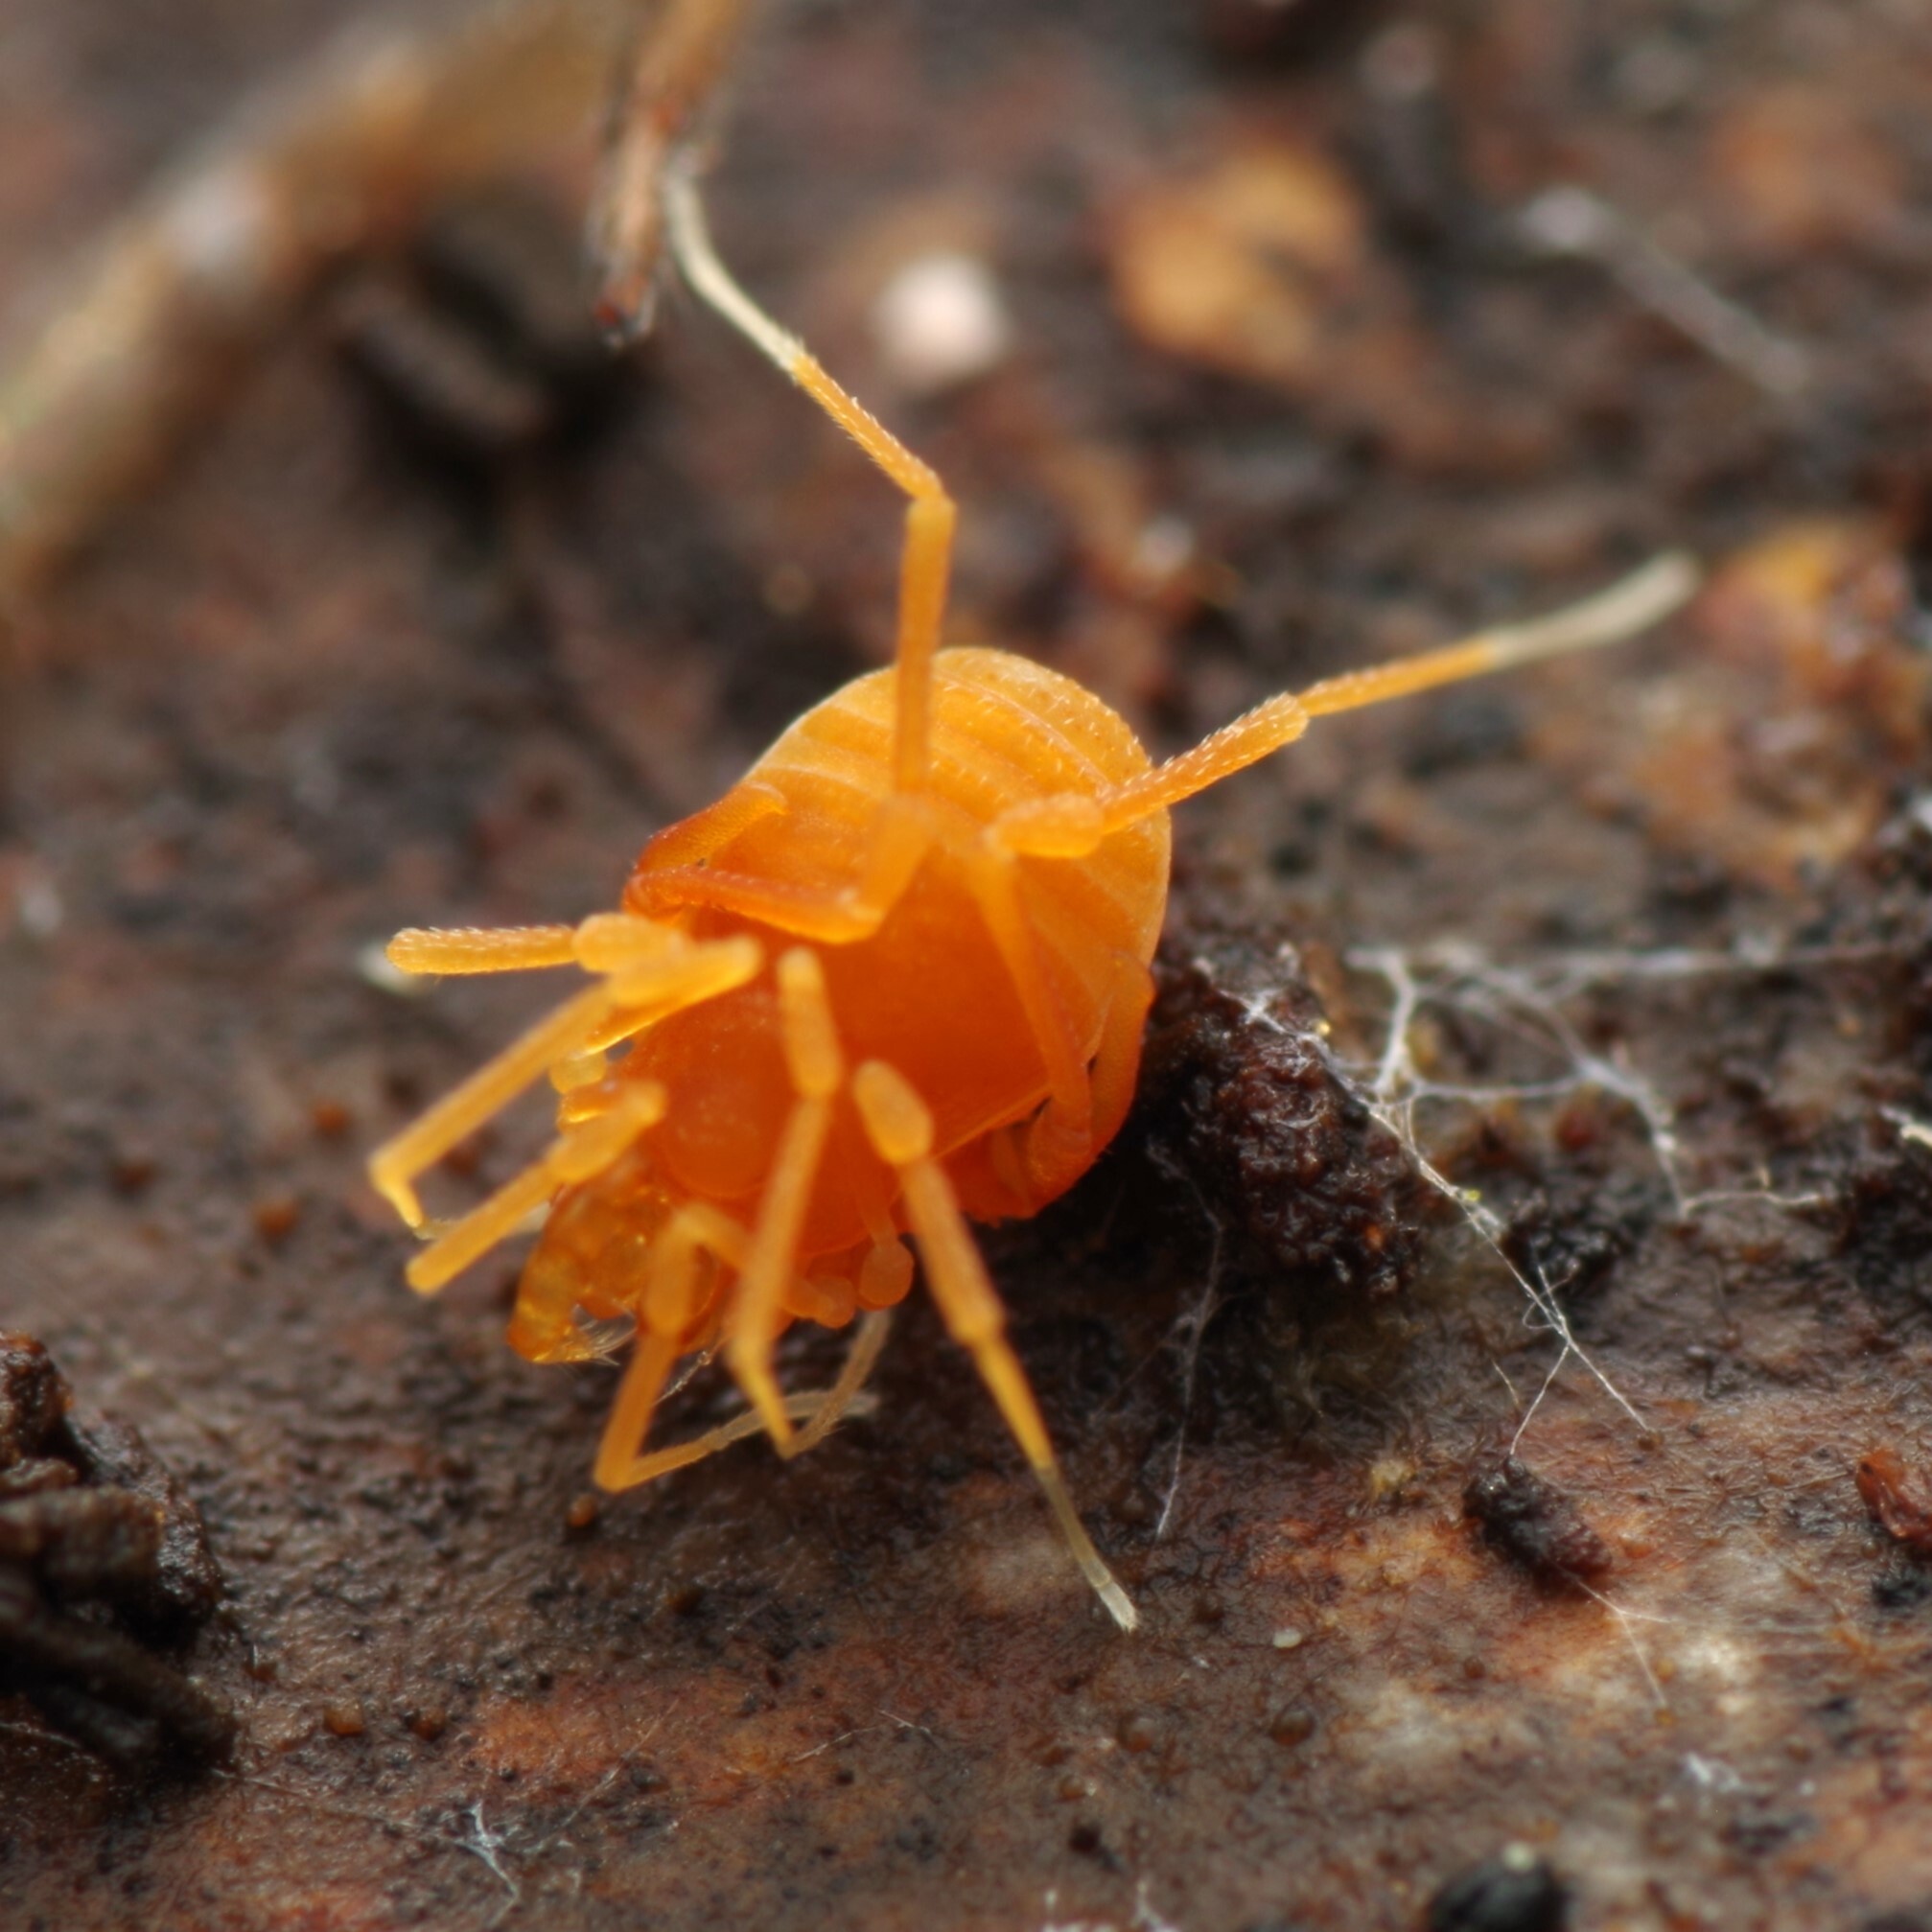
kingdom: Animalia
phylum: Arthropoda
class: Arachnida
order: Opiliones
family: Phalangodidae
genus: Scotolemon
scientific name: Scotolemon doriae
